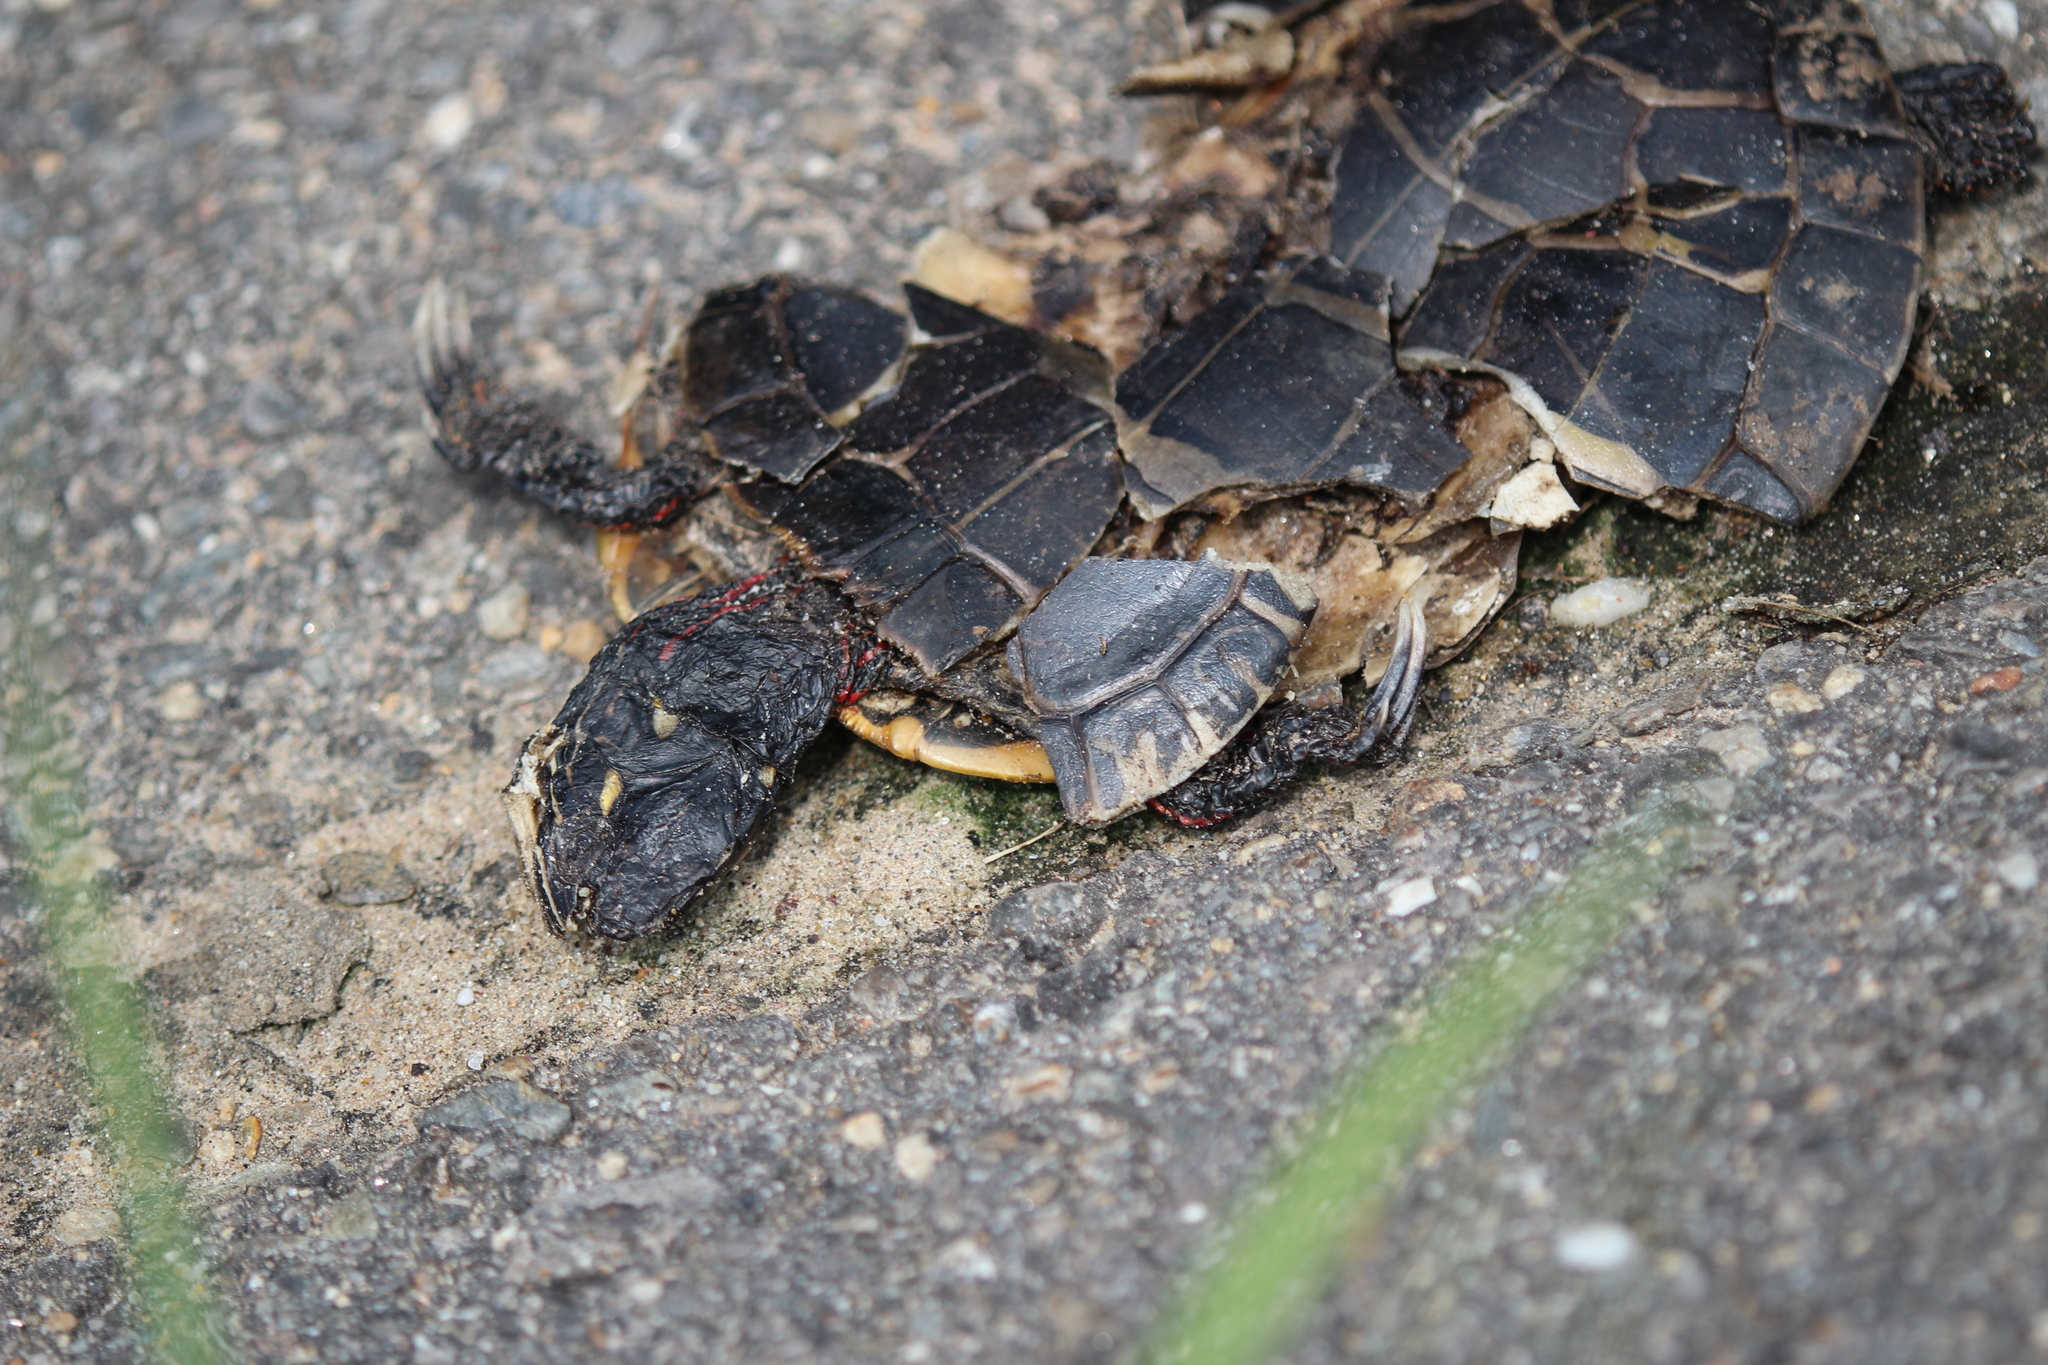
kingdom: Animalia
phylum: Chordata
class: Testudines
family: Emydidae
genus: Chrysemys
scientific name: Chrysemys picta
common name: Painted turtle
